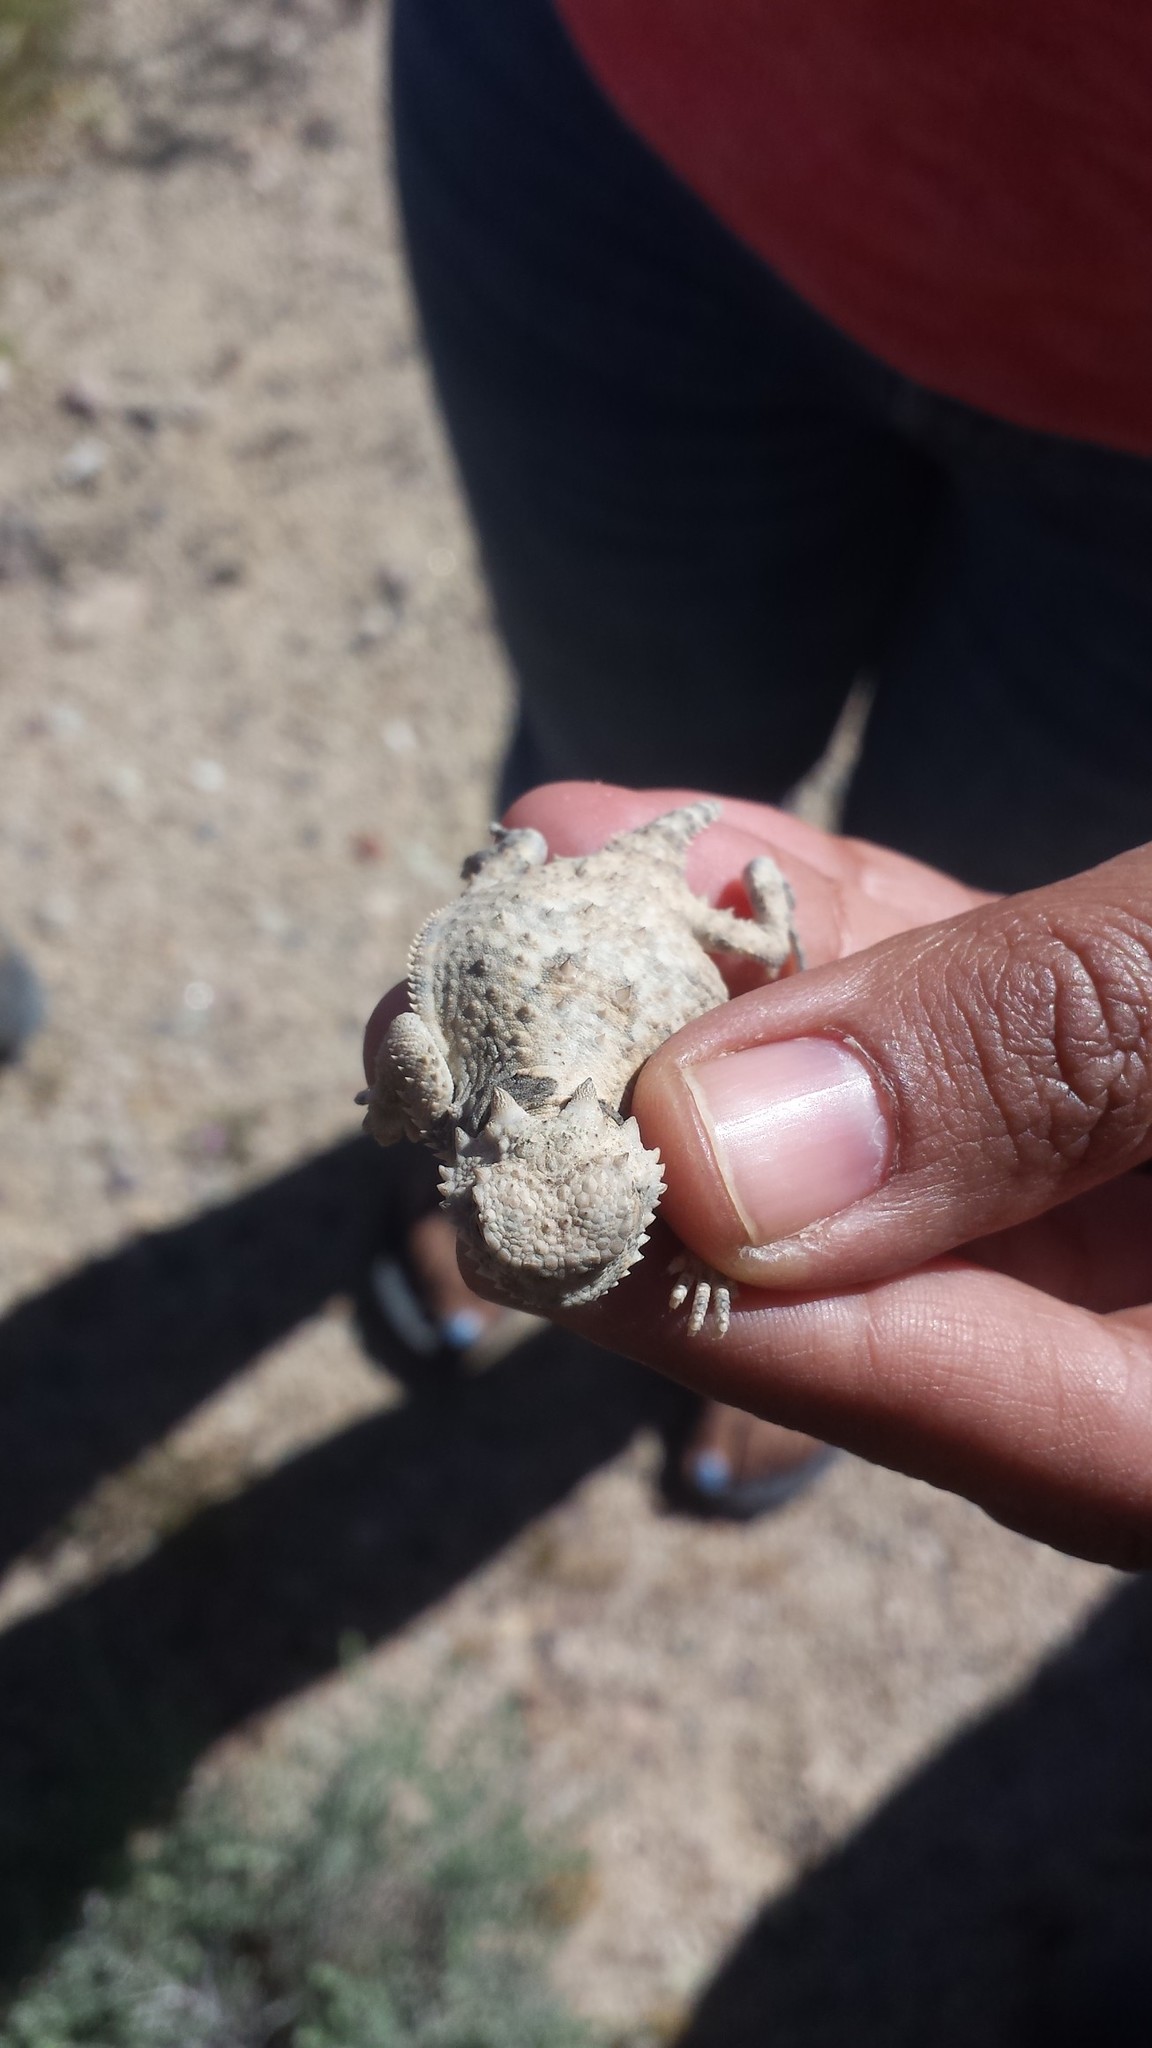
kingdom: Animalia
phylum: Chordata
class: Squamata
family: Phrynosomatidae
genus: Phrynosoma
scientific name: Phrynosoma platyrhinos
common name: Desert horned lizard
